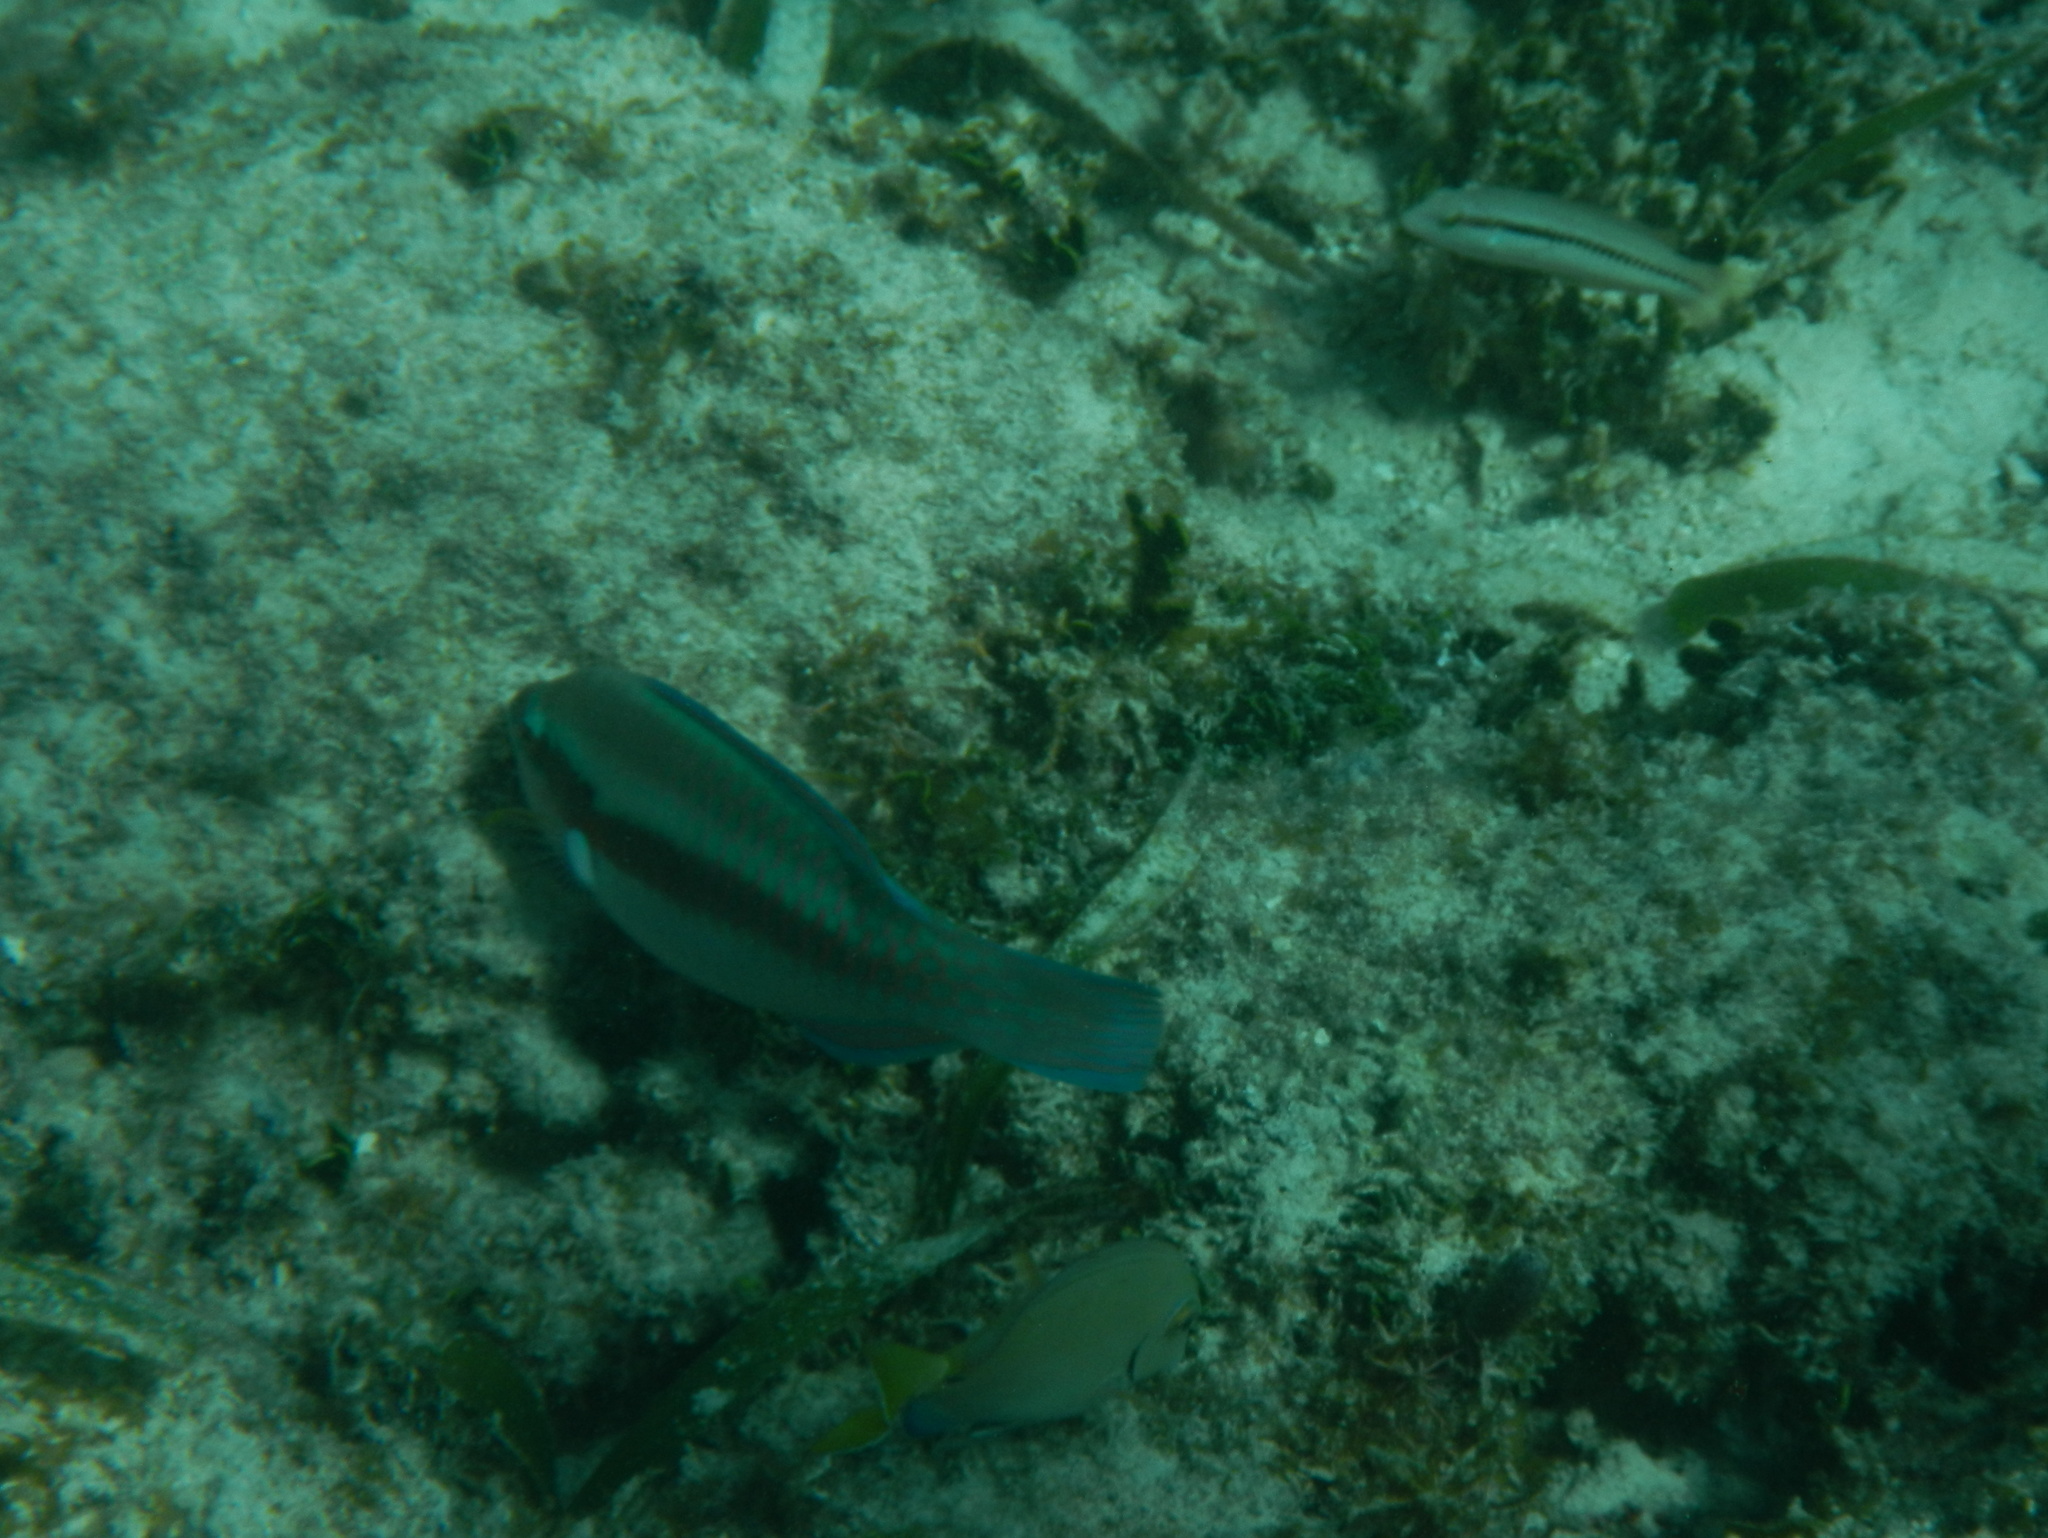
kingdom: Animalia
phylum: Chordata
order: Perciformes
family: Scaridae
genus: Scarus
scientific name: Scarus iseri
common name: Striped parrotfish
